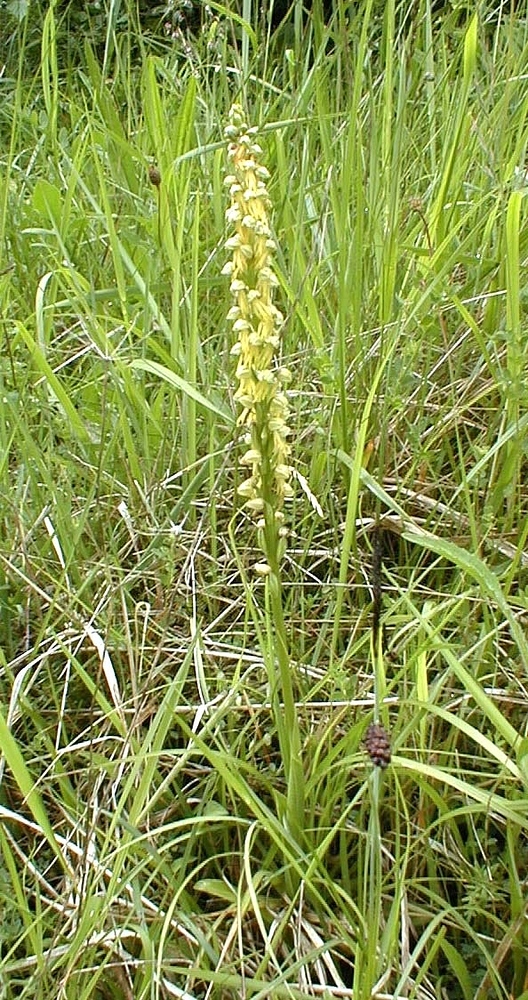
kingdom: Plantae
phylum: Tracheophyta
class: Liliopsida
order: Asparagales
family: Orchidaceae
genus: Orchis
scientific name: Orchis anthropophora
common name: Man orchid
